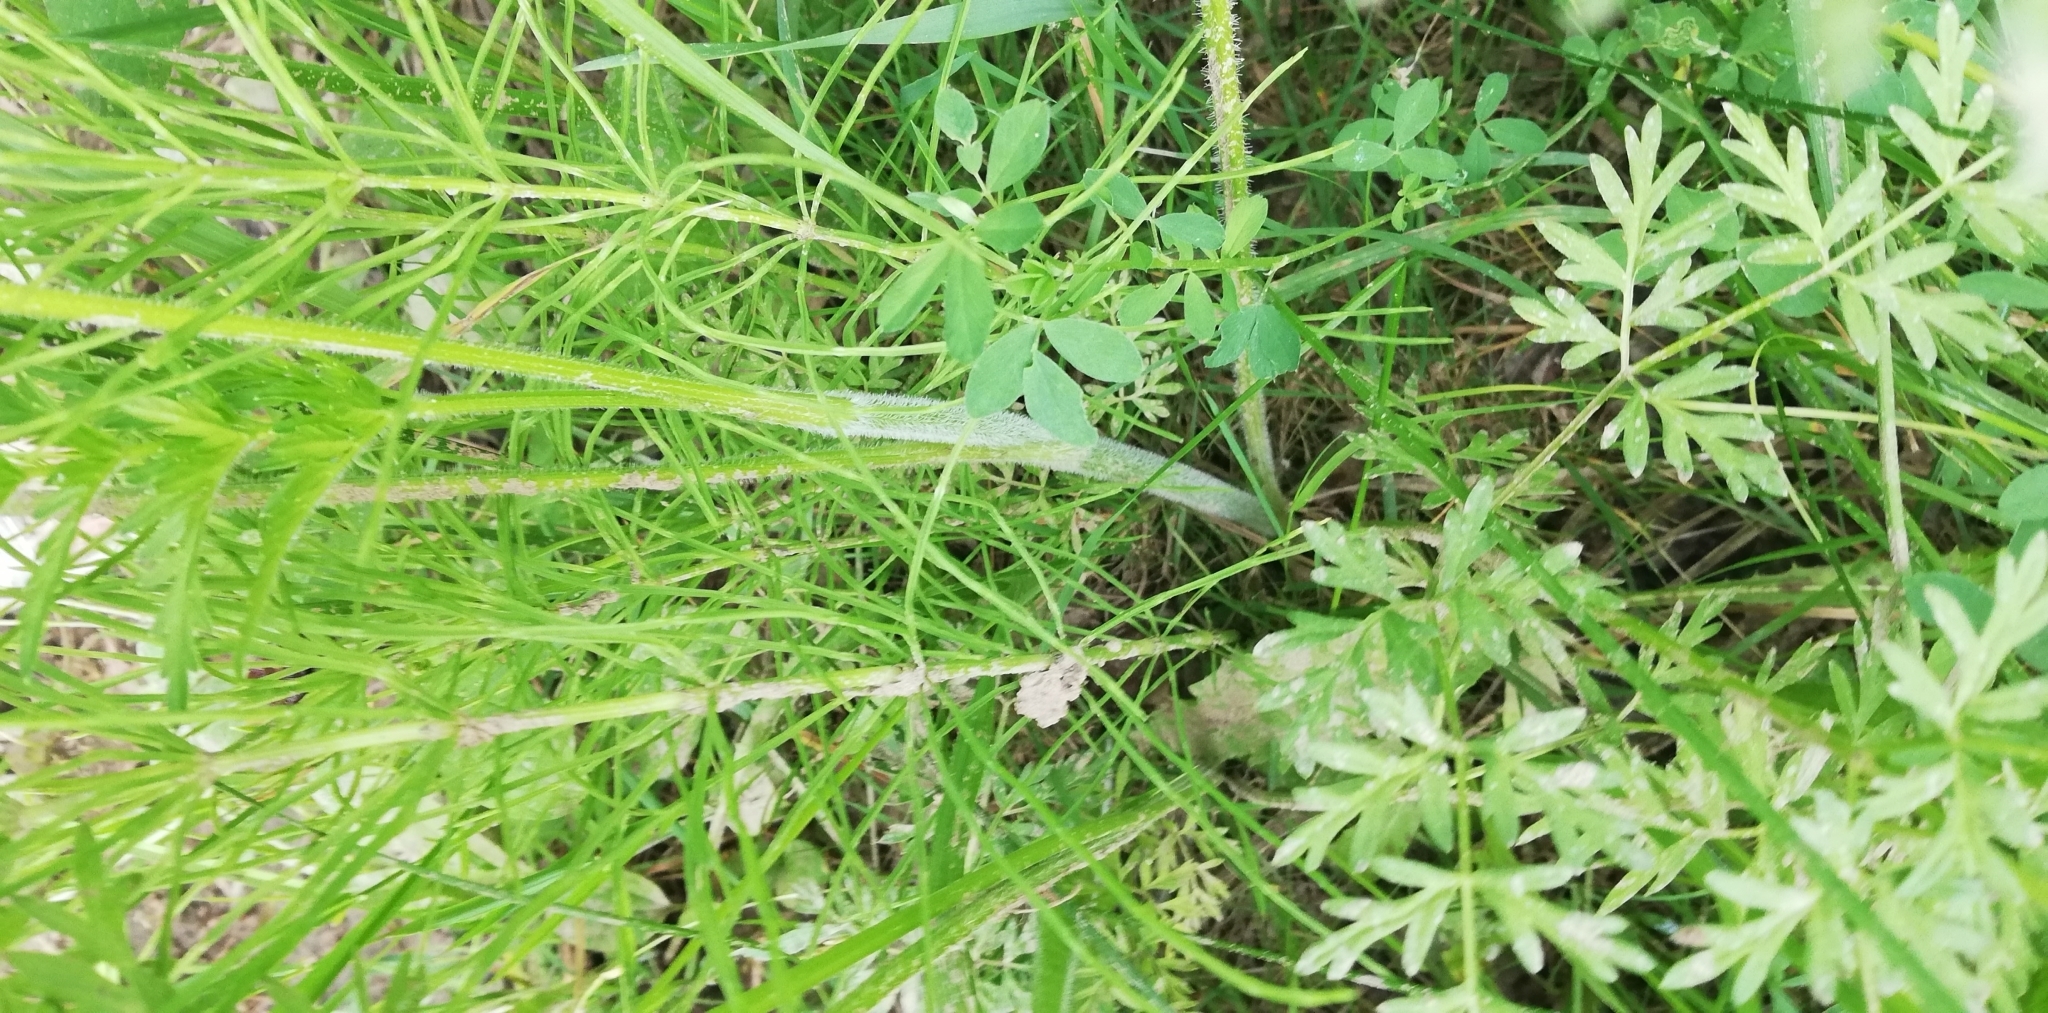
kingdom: Plantae
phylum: Tracheophyta
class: Magnoliopsida
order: Apiales
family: Apiaceae
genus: Silphiodaucus
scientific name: Silphiodaucus prutenicus
